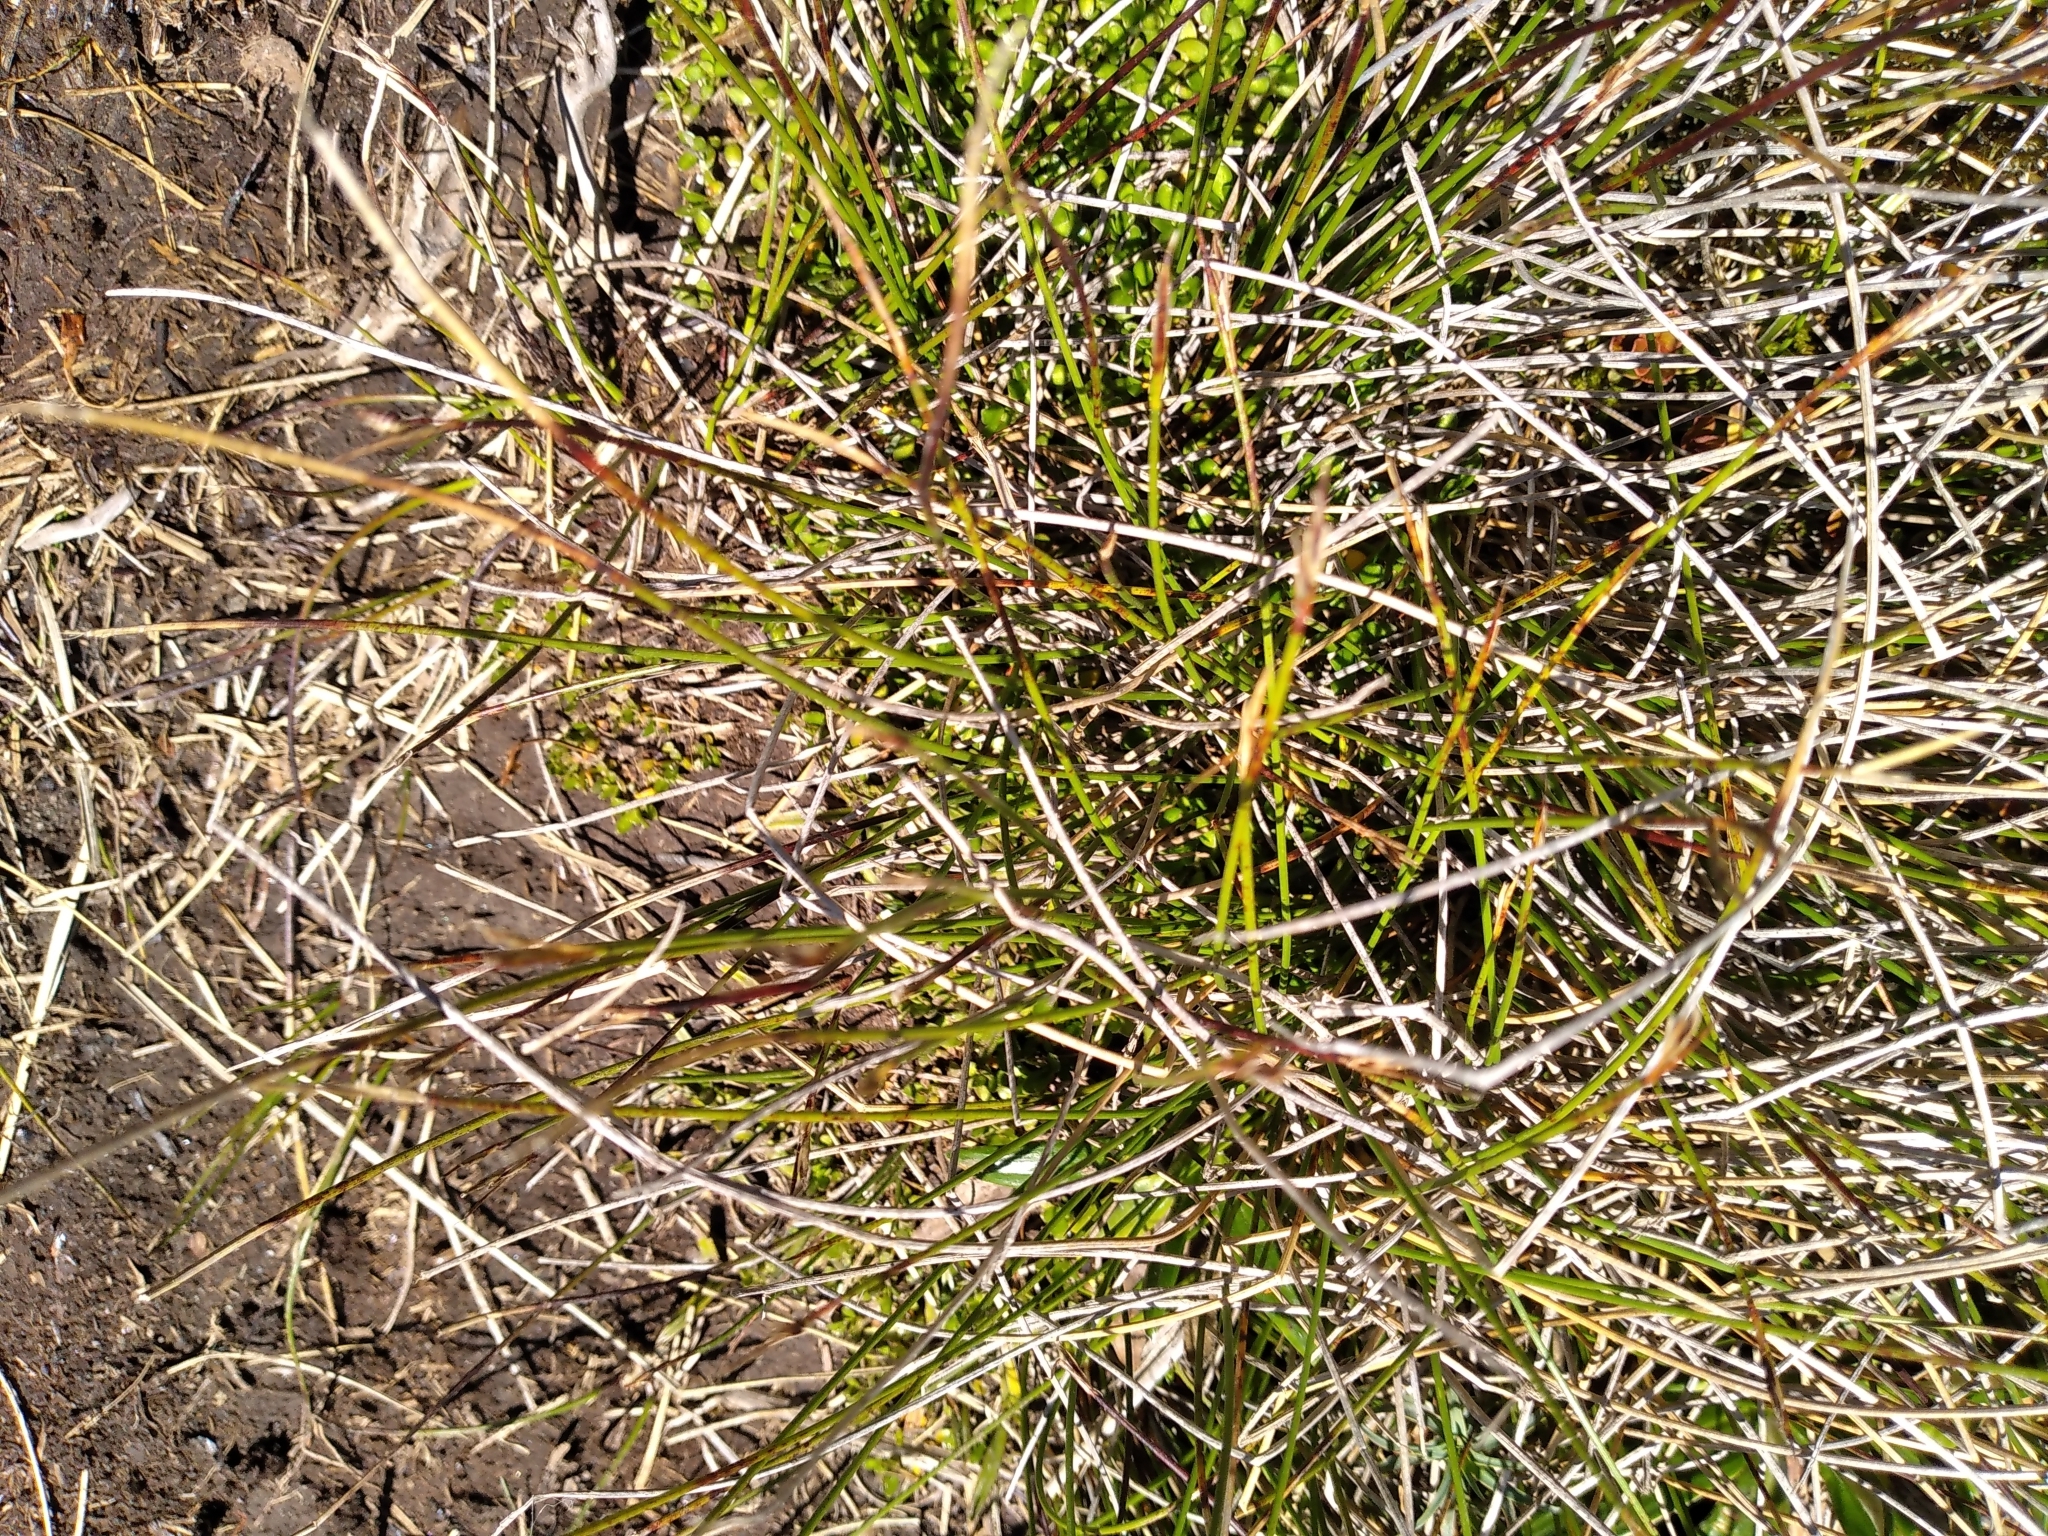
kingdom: Plantae
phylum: Tracheophyta
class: Liliopsida
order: Poales
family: Cyperaceae
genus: Schoenus
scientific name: Schoenus pauciflorus
